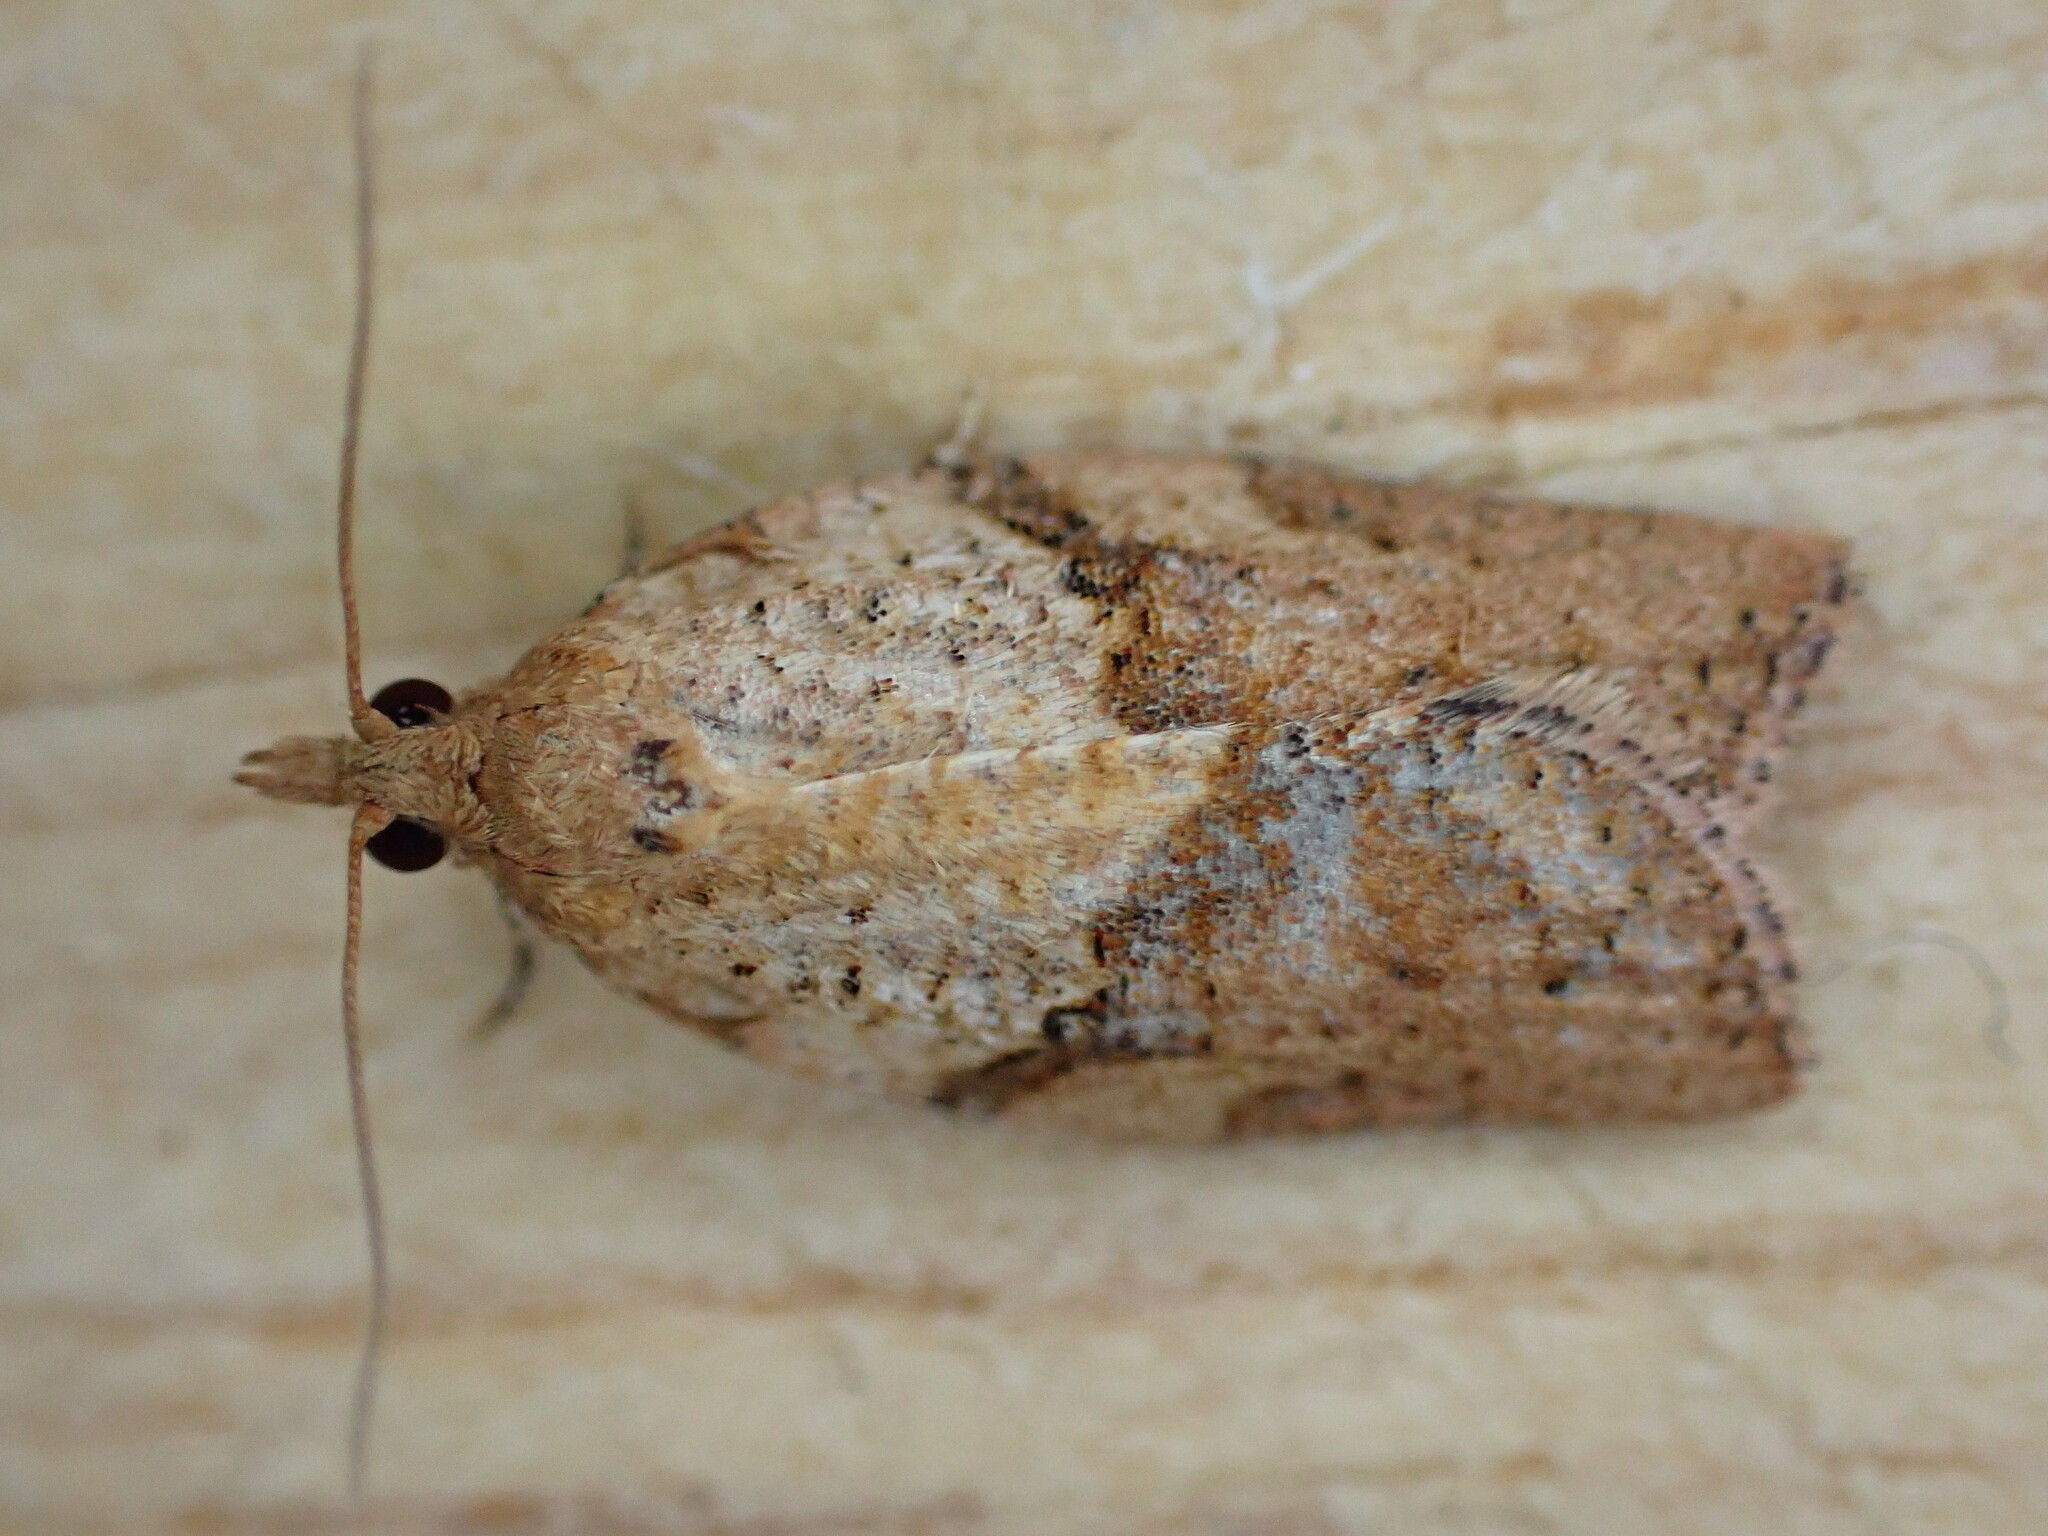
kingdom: Animalia
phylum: Arthropoda
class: Insecta
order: Lepidoptera
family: Tortricidae
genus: Epiphyas
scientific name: Epiphyas postvittana
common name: Light brown apple moth
